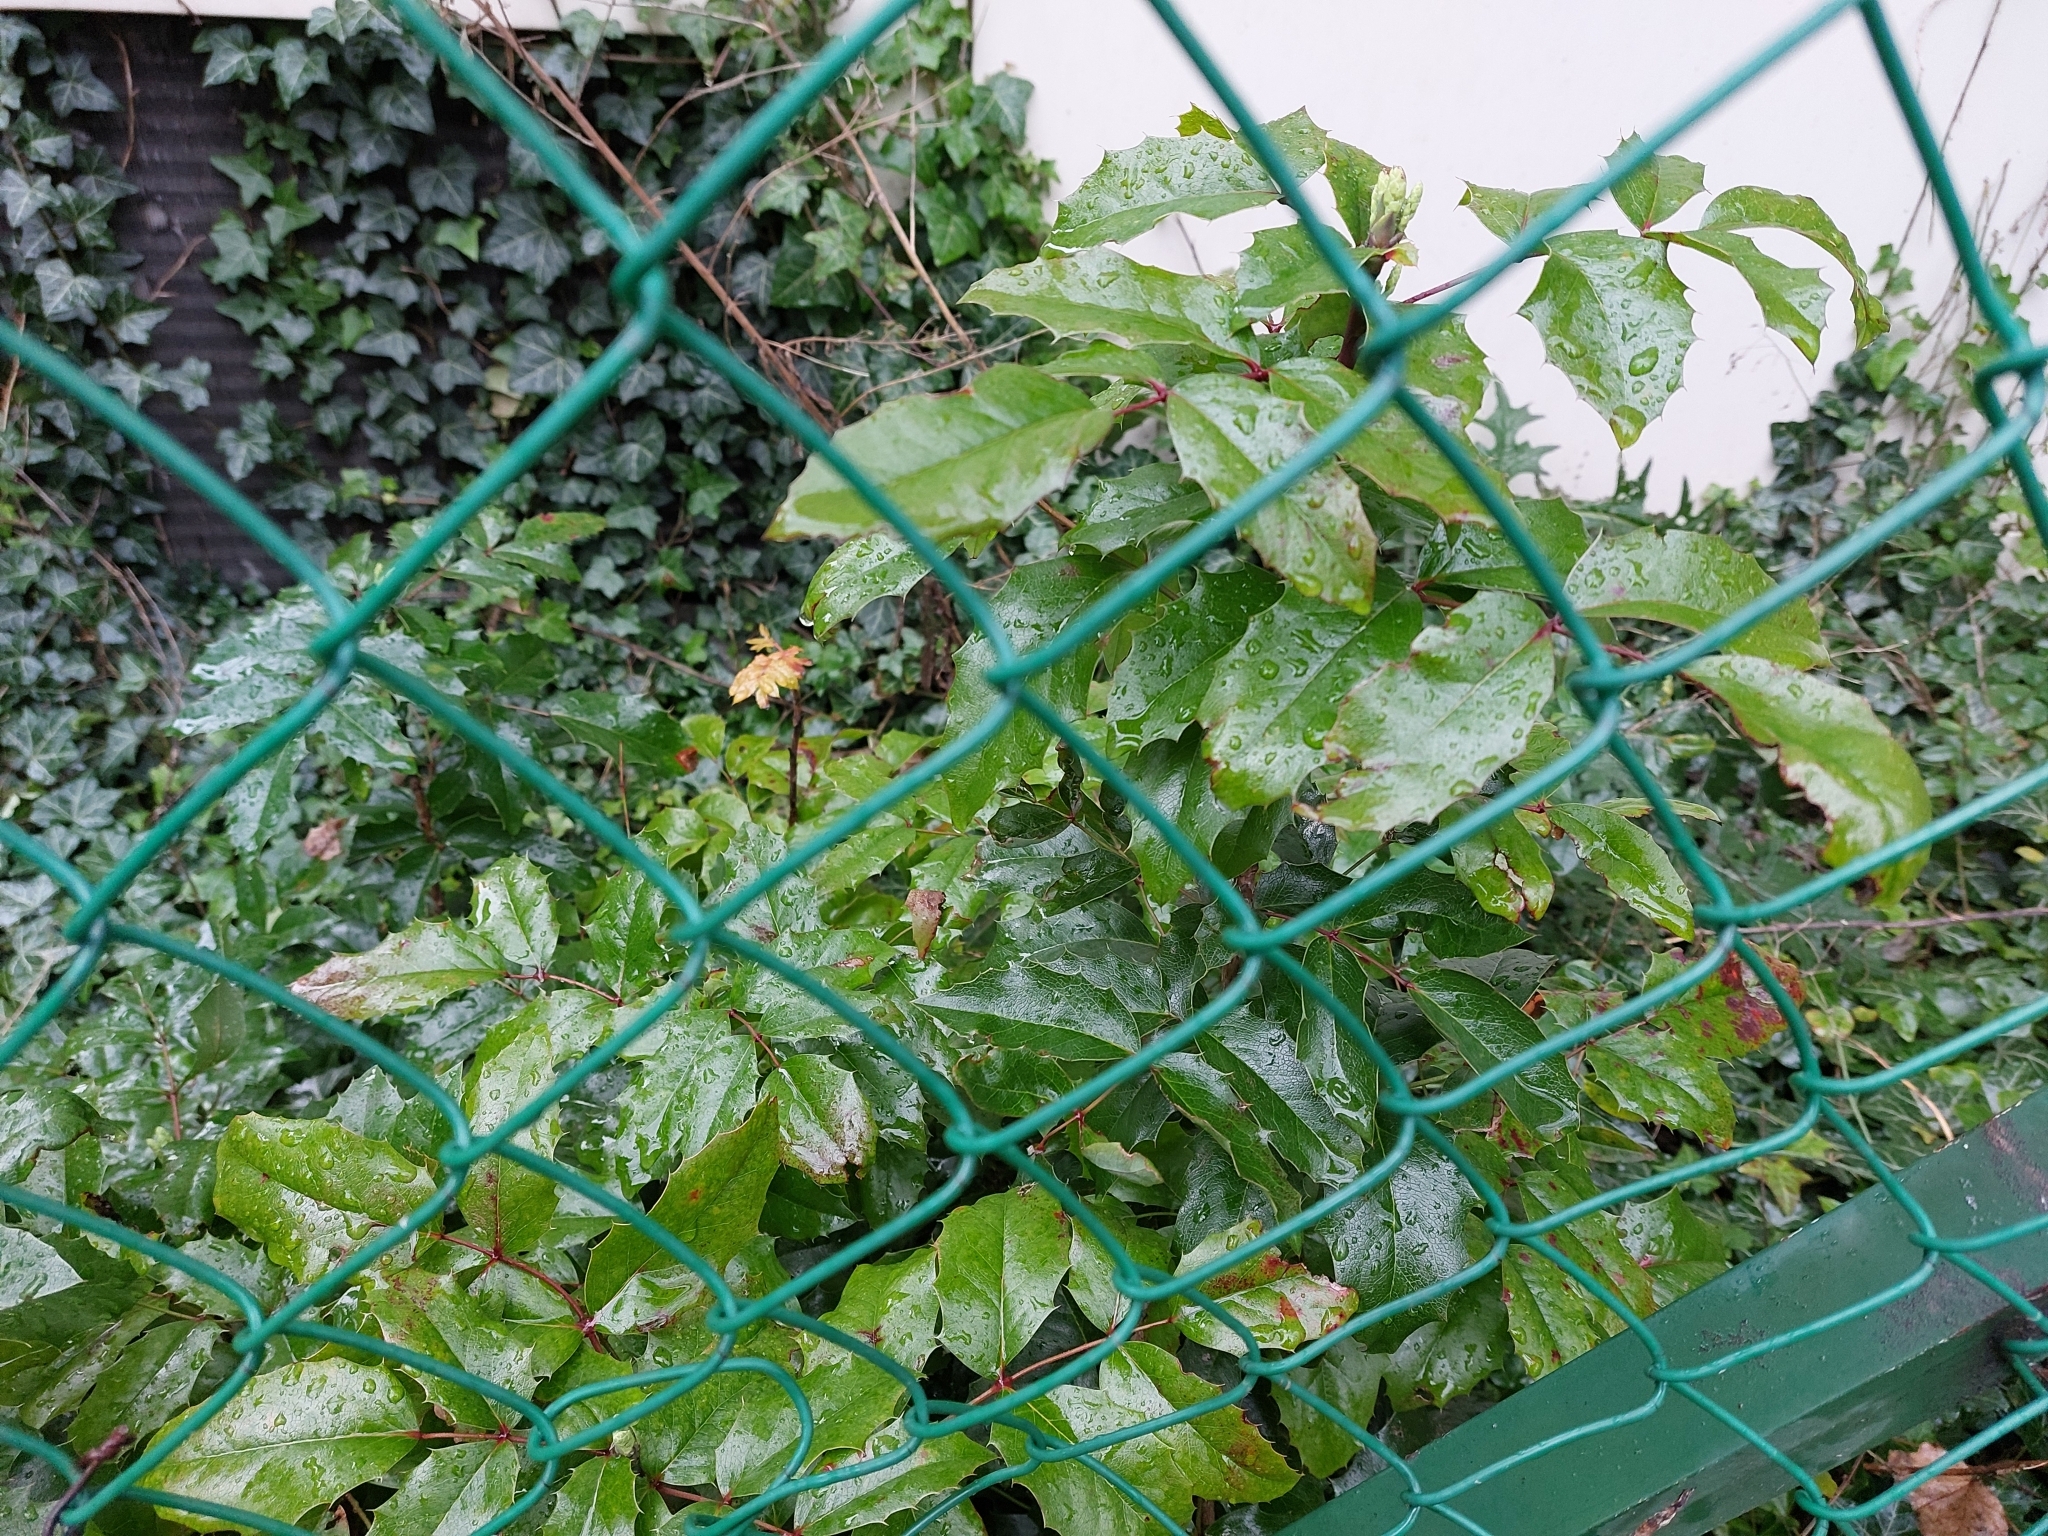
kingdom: Plantae
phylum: Tracheophyta
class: Magnoliopsida
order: Ranunculales
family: Berberidaceae
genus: Mahonia
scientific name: Mahonia aquifolium
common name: Oregon-grape
